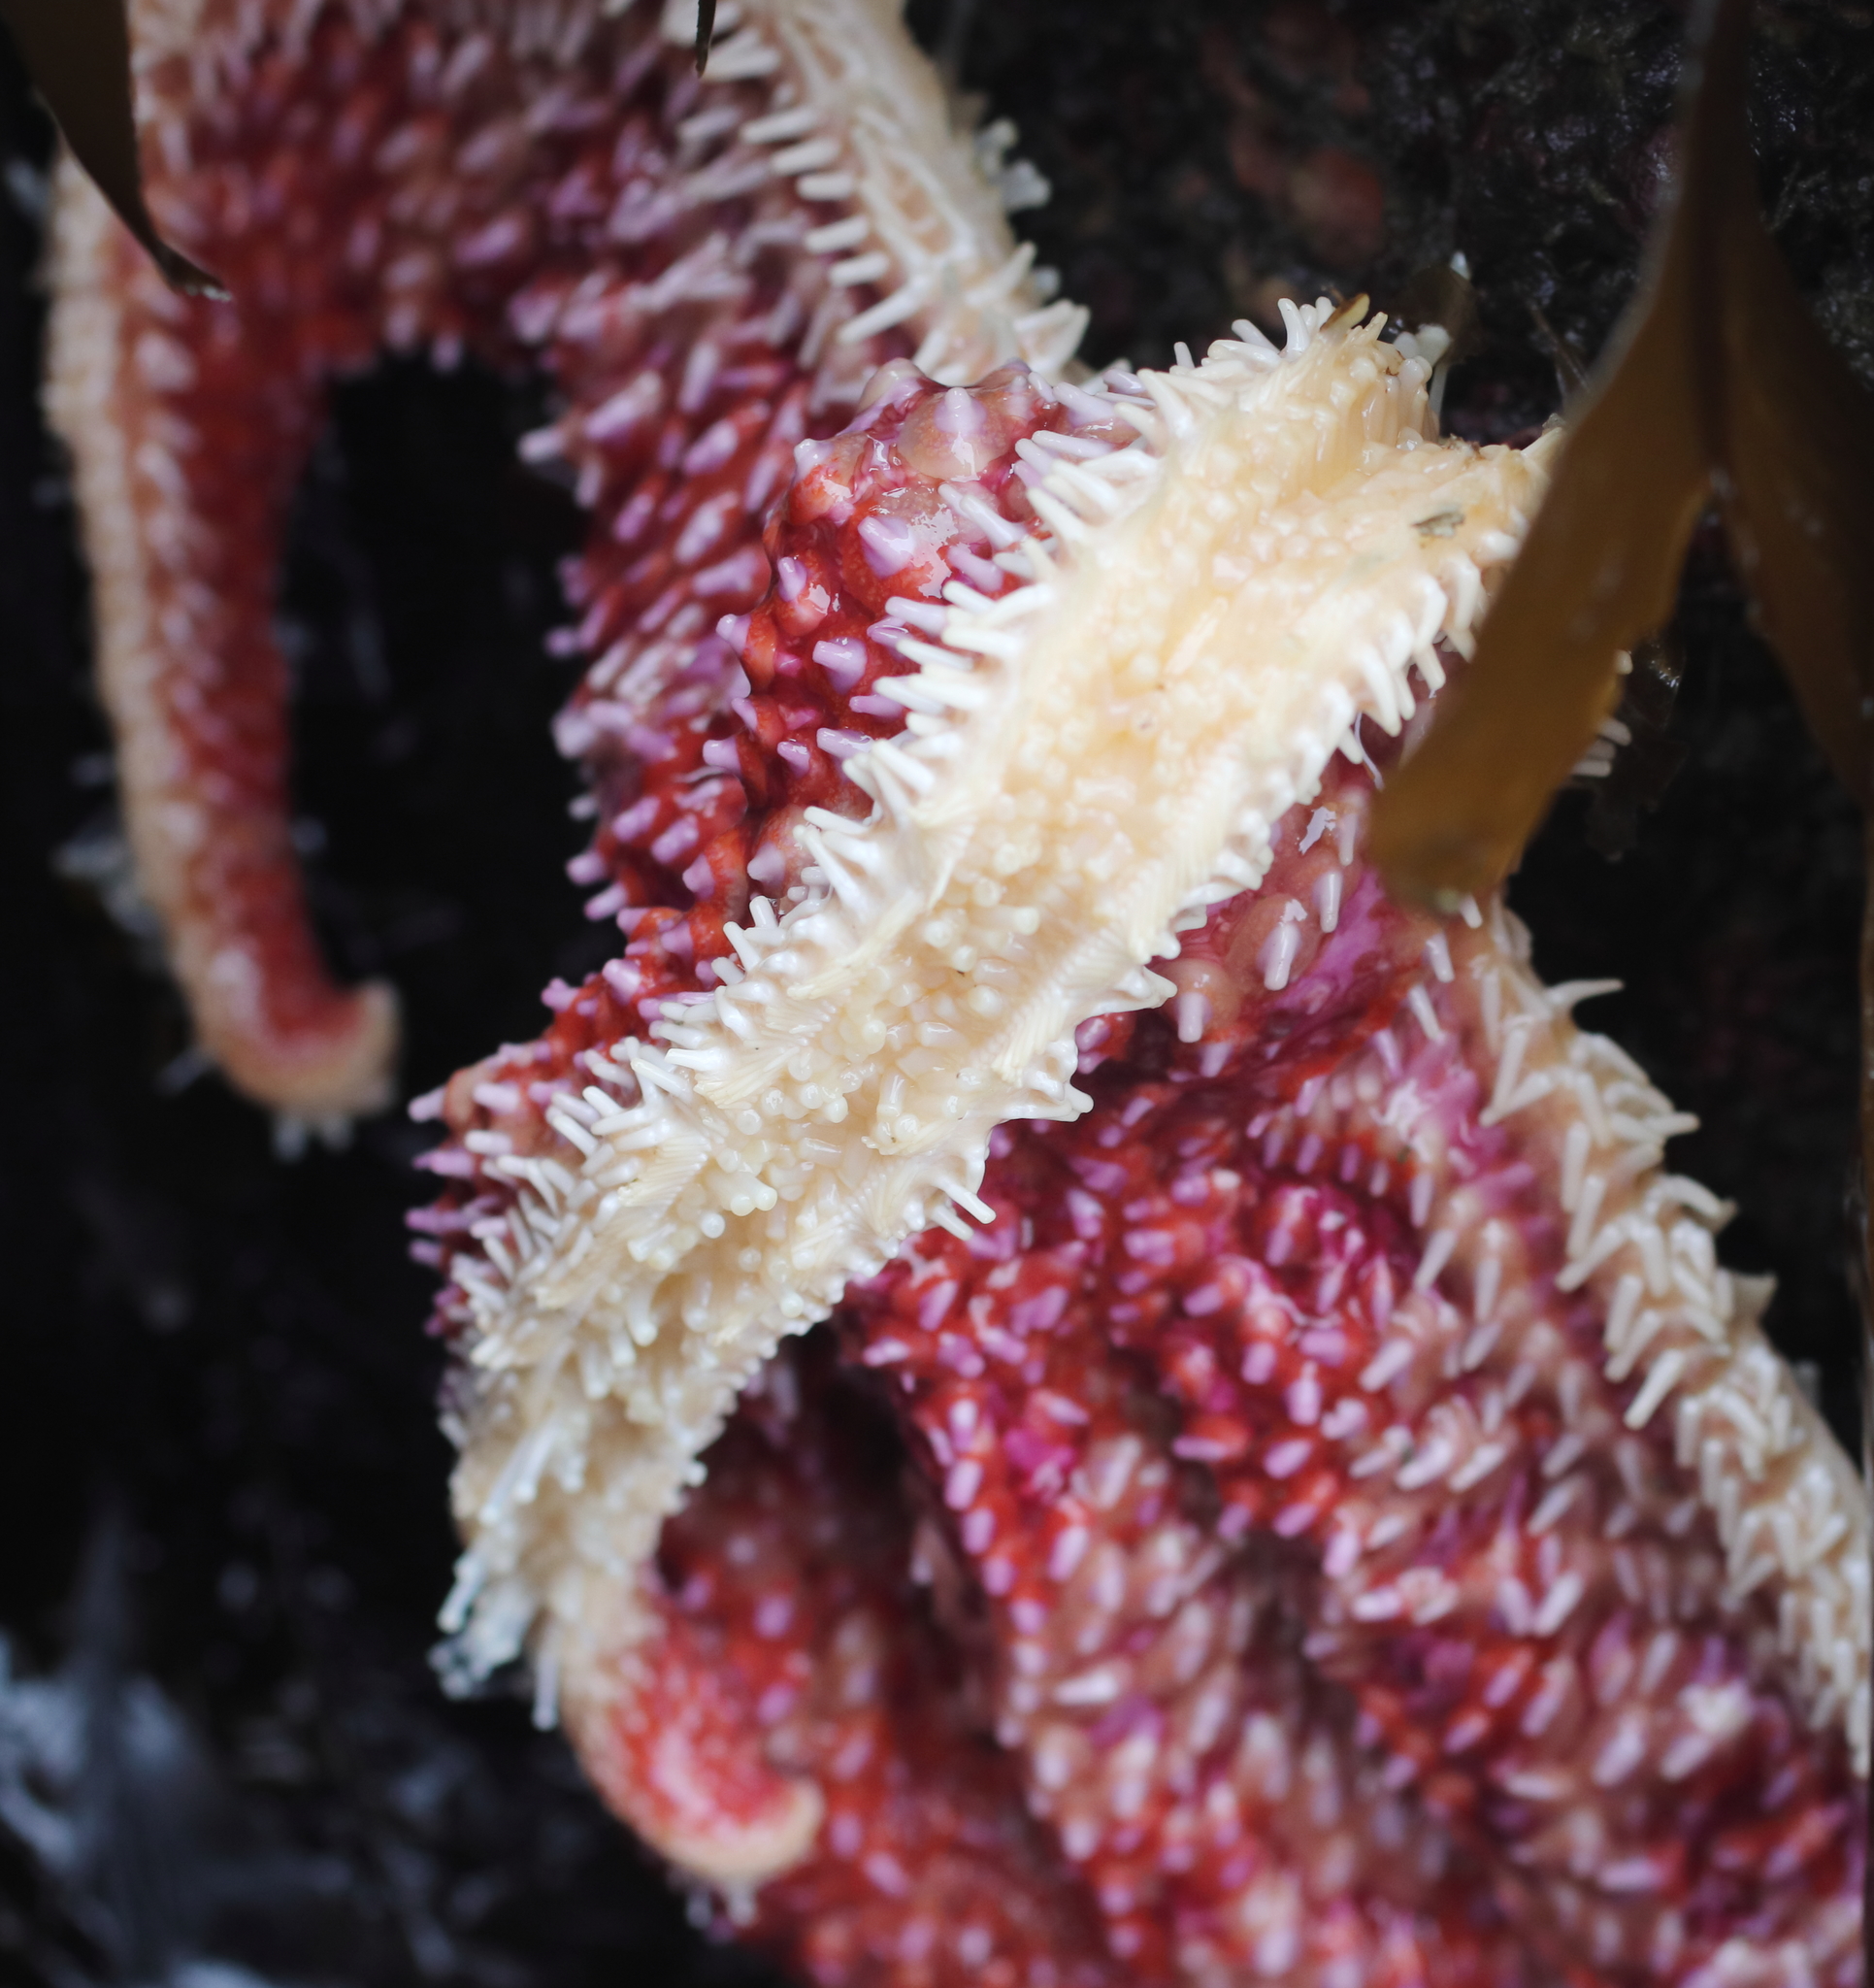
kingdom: Animalia
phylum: Echinodermata
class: Asteroidea
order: Forcipulatida
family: Asteriidae
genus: Orthasterias
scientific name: Orthasterias koehleri
